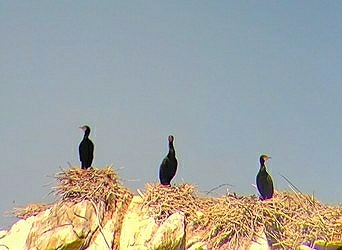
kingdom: Animalia
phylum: Chordata
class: Aves
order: Suliformes
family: Phalacrocoracidae
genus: Phalacrocorax
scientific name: Phalacrocorax auritus
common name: Double-crested cormorant
